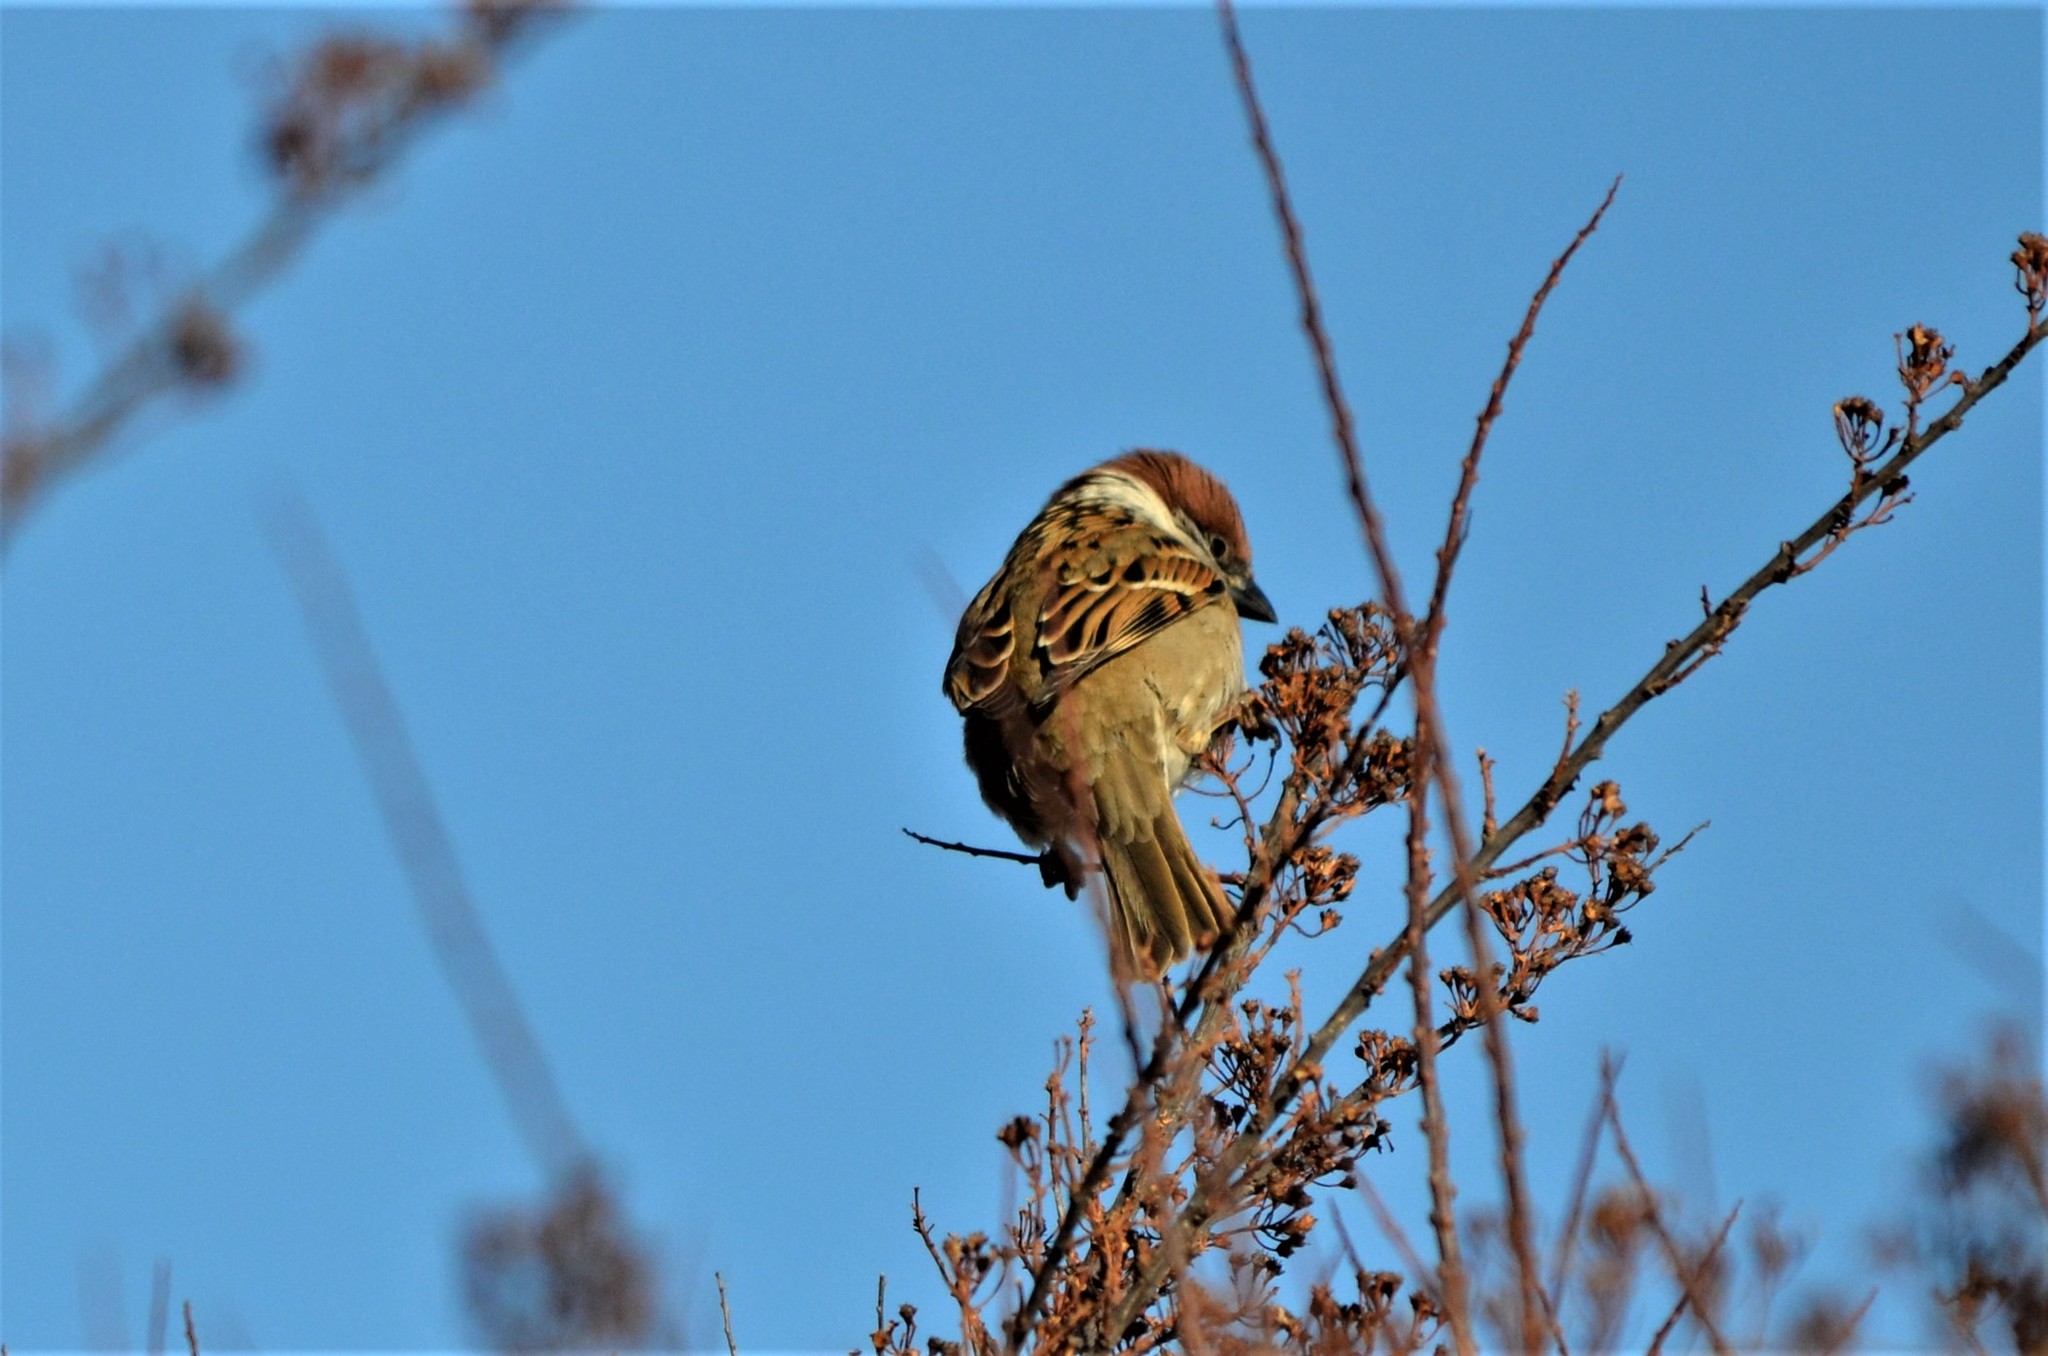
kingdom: Animalia
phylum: Chordata
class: Aves
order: Passeriformes
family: Passeridae
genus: Passer
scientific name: Passer montanus
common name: Eurasian tree sparrow
